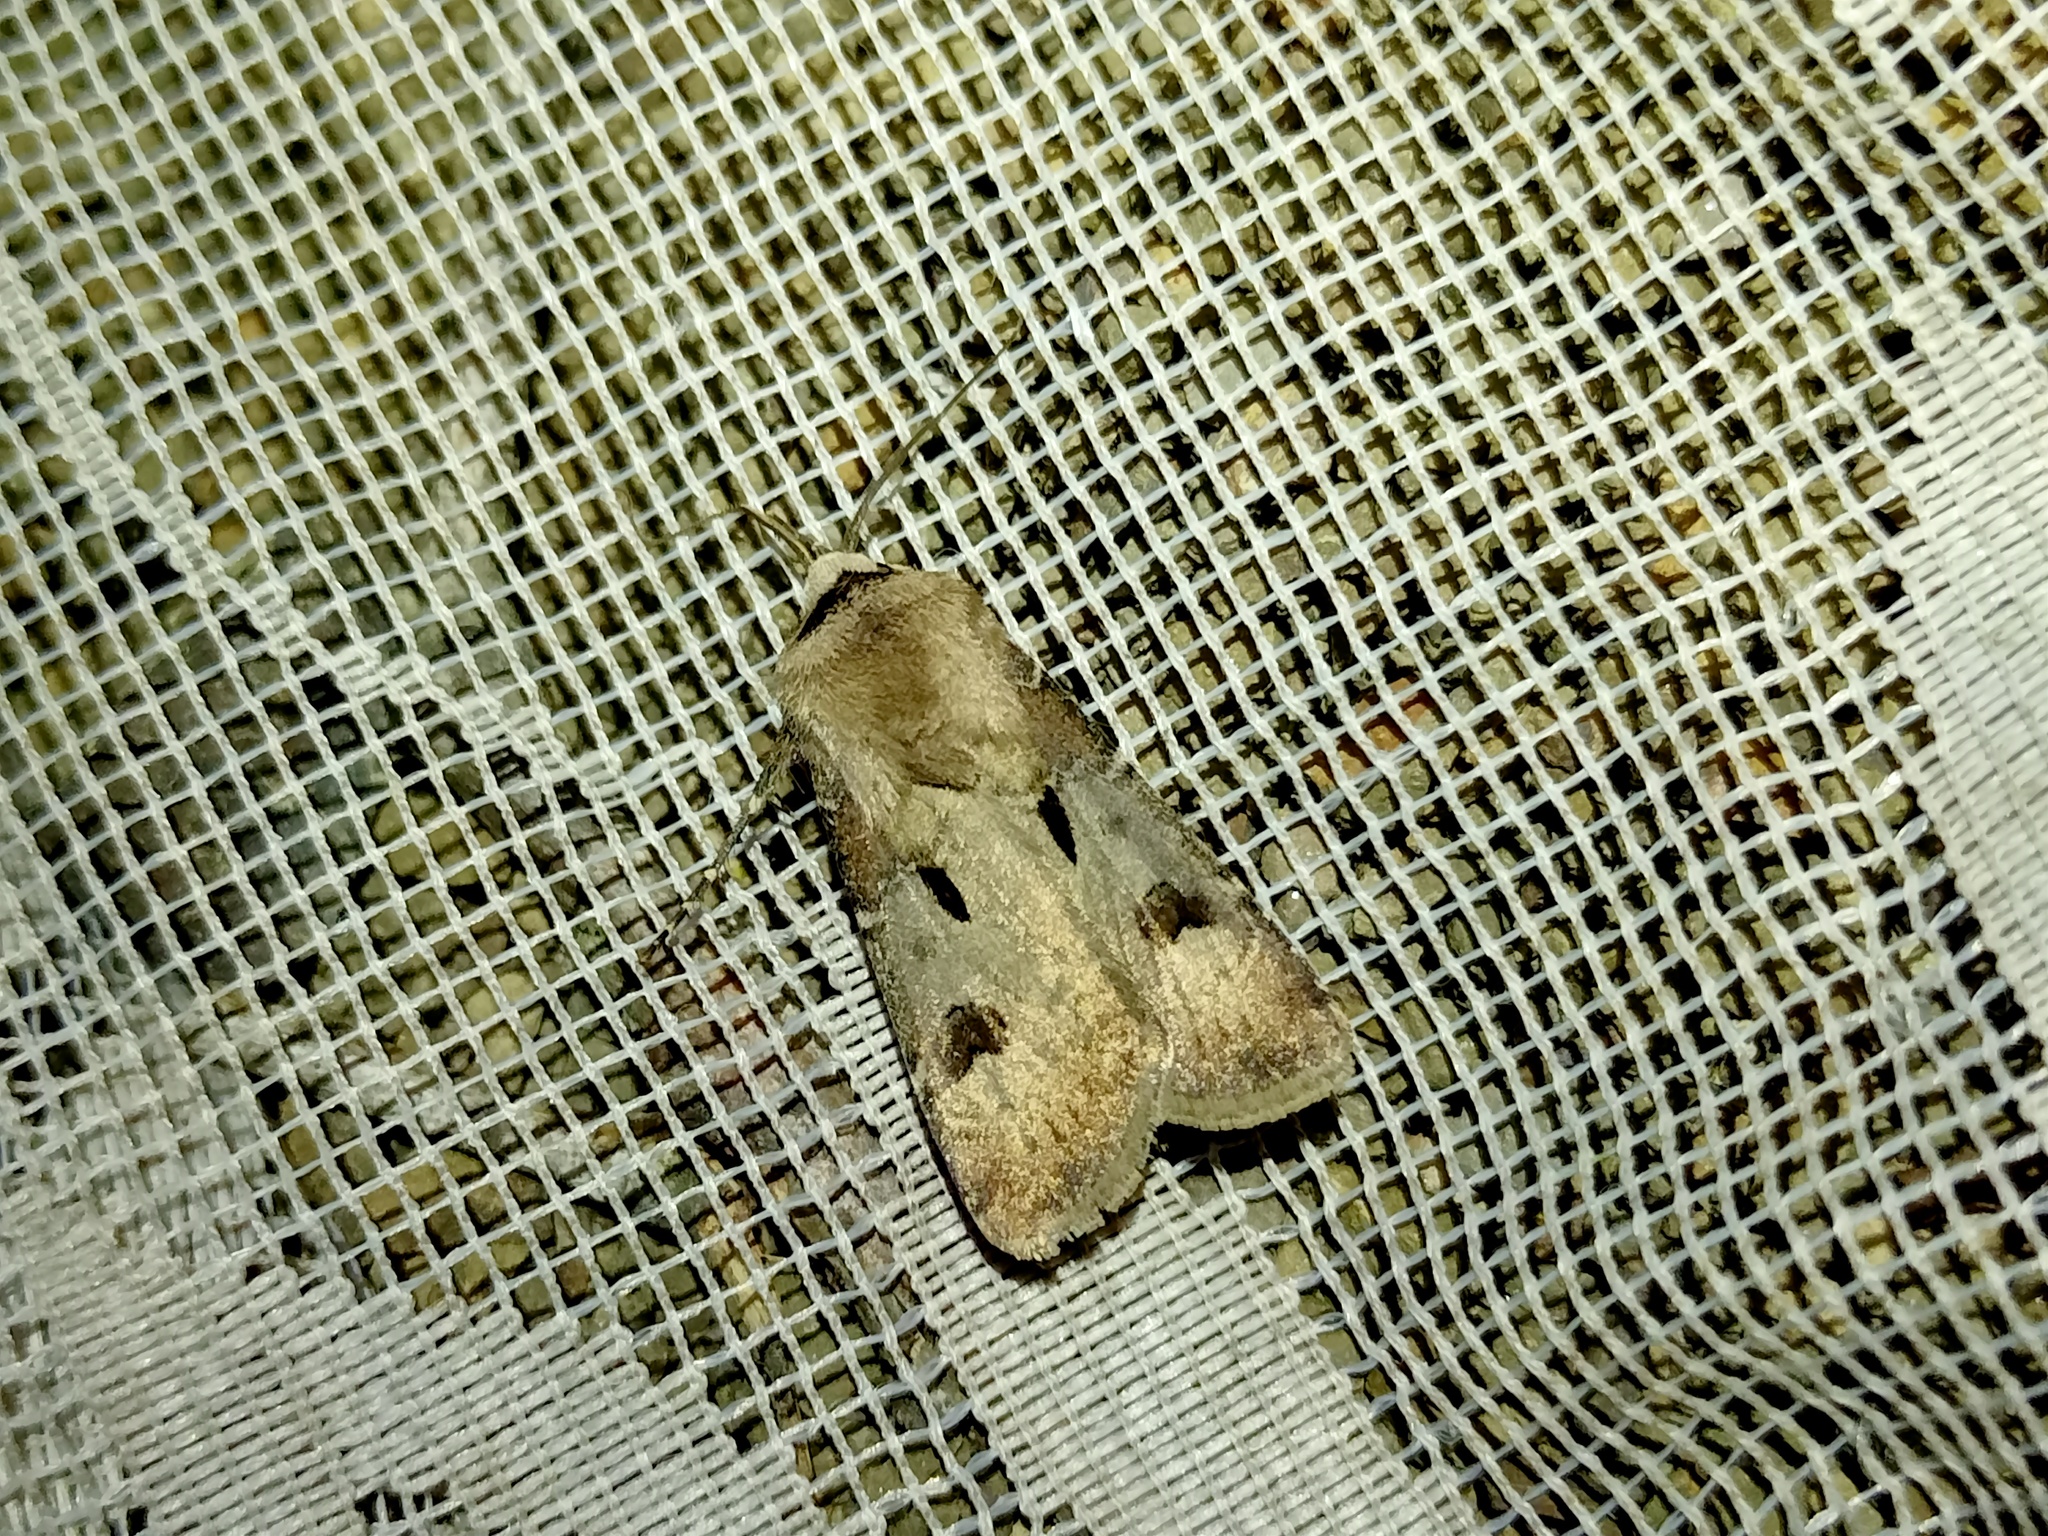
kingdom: Animalia
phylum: Arthropoda
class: Insecta
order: Lepidoptera
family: Noctuidae
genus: Agrotis
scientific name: Agrotis exclamationis
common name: Heart and dart
